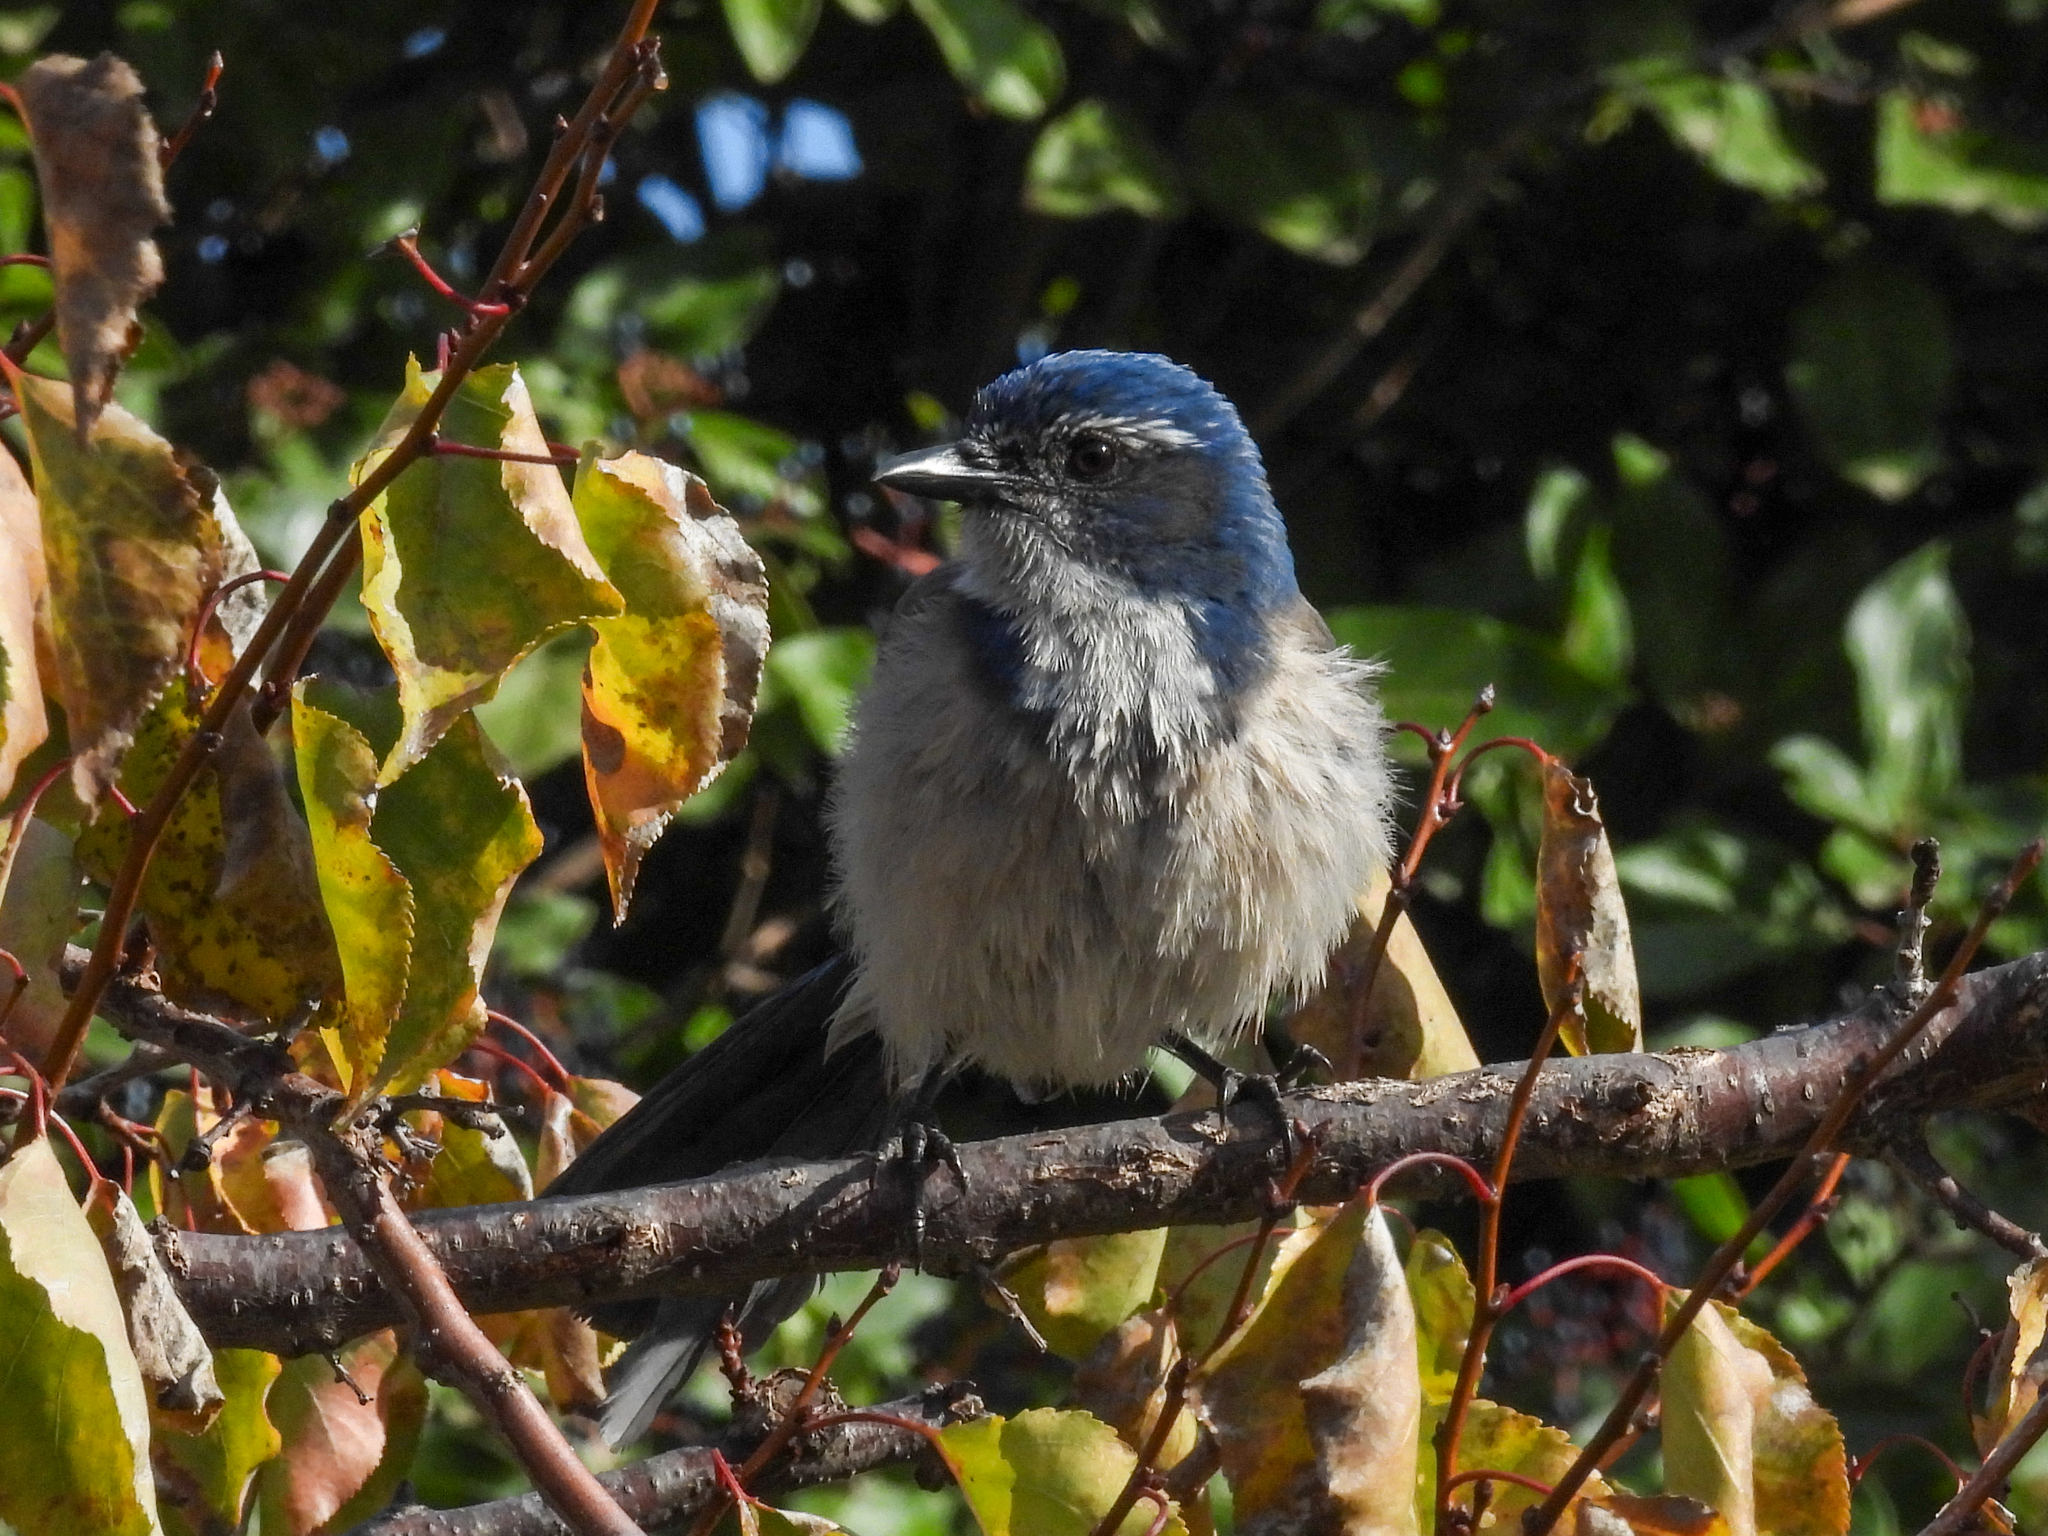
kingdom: Animalia
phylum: Chordata
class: Aves
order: Passeriformes
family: Corvidae
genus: Aphelocoma
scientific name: Aphelocoma californica
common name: California scrub-jay
